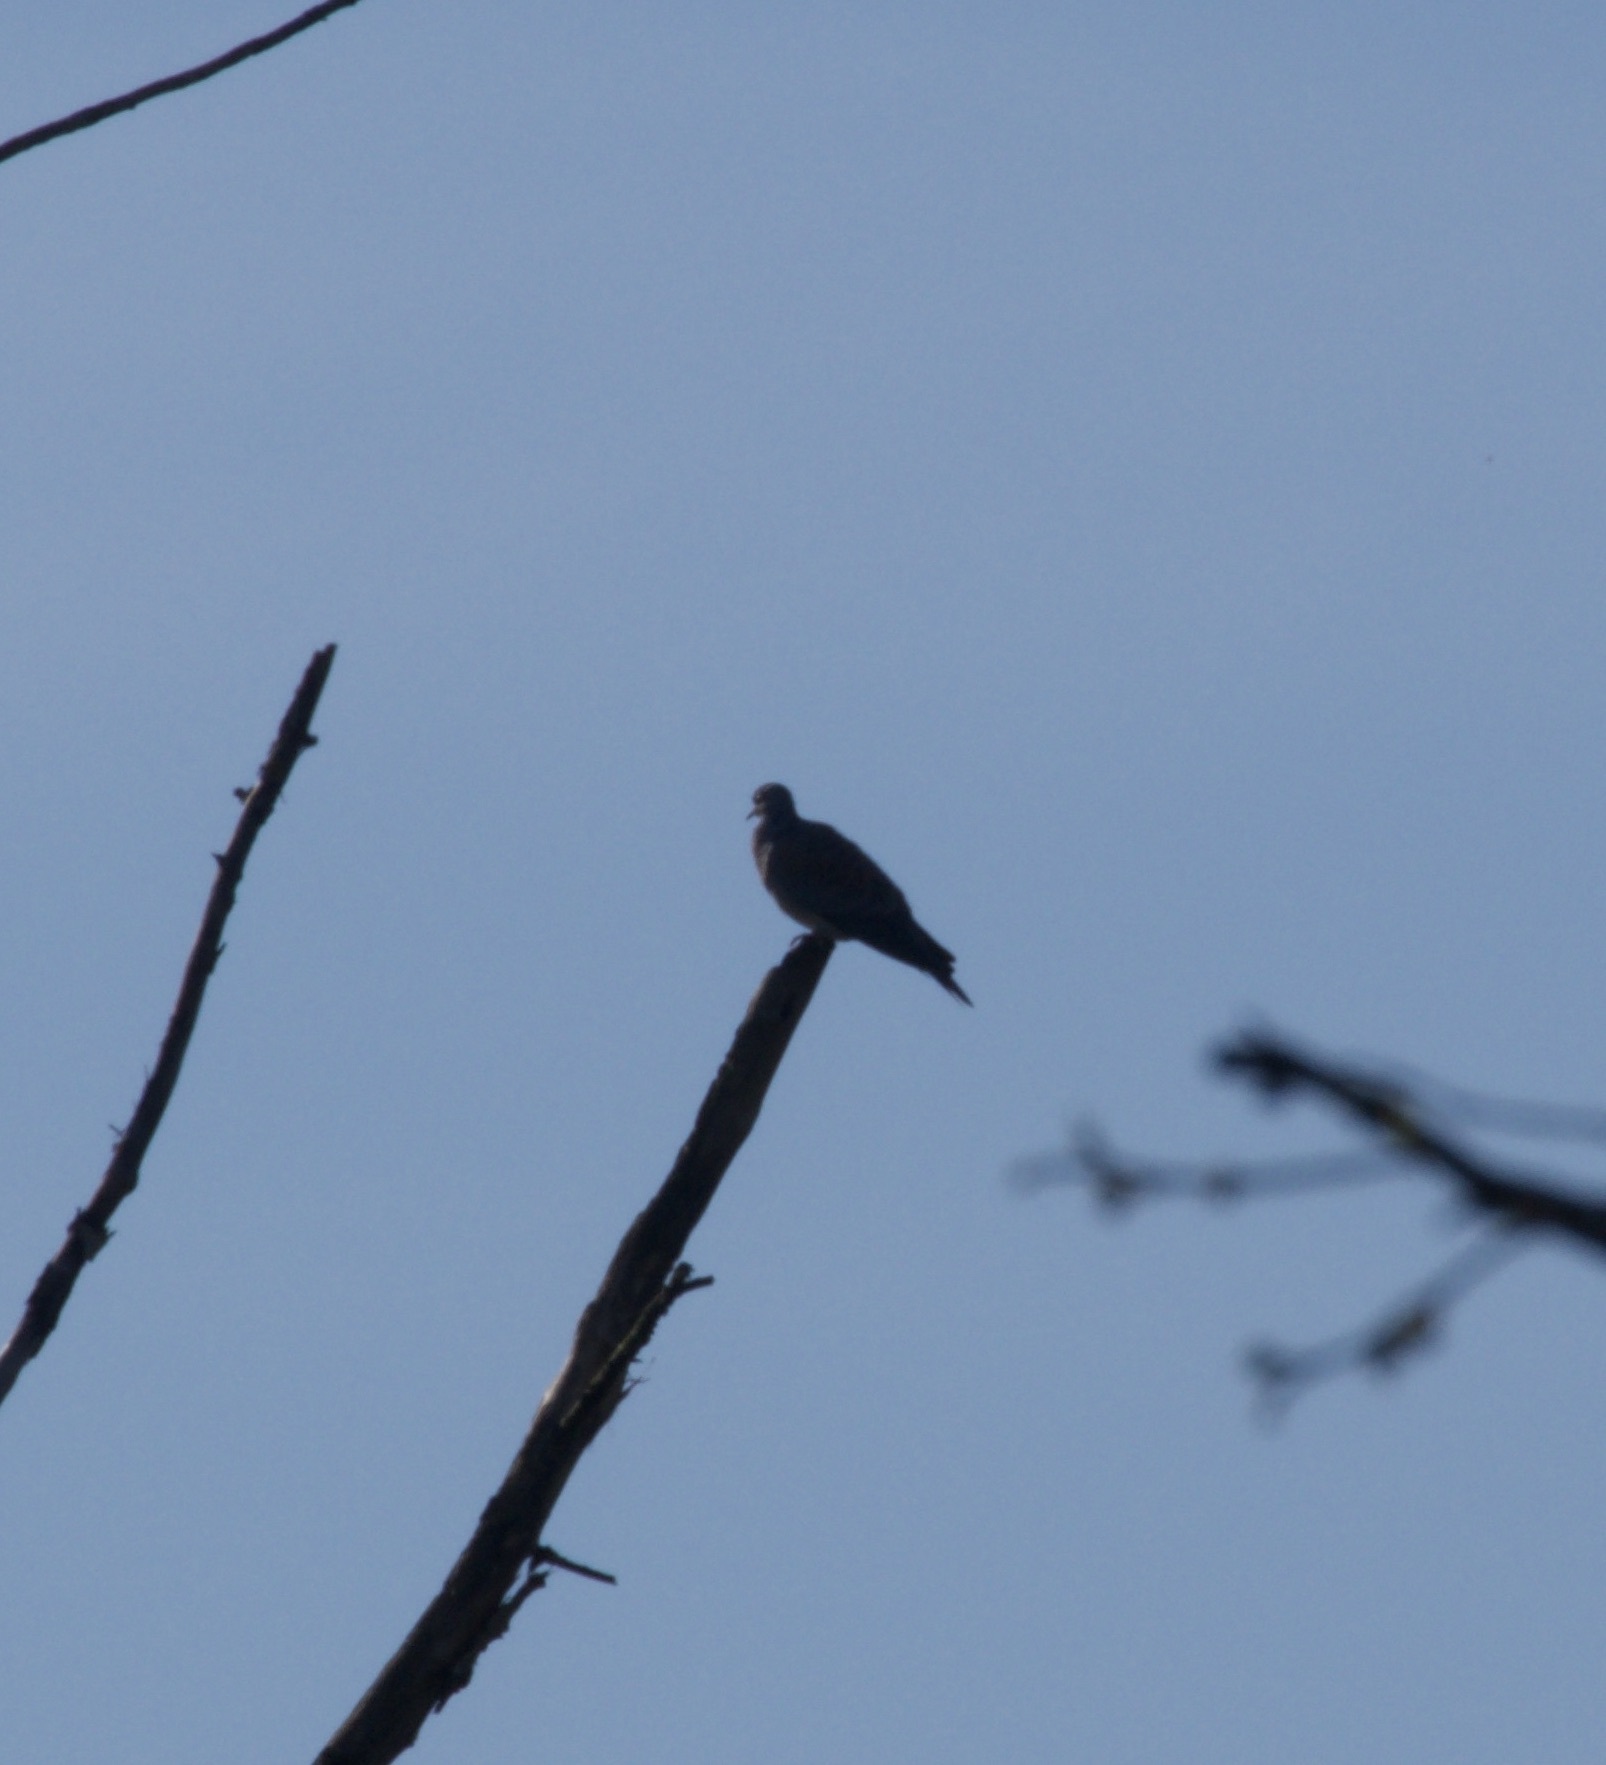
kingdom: Animalia
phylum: Chordata
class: Aves
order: Columbiformes
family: Columbidae
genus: Columba
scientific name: Columba oenas
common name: Stock dove
